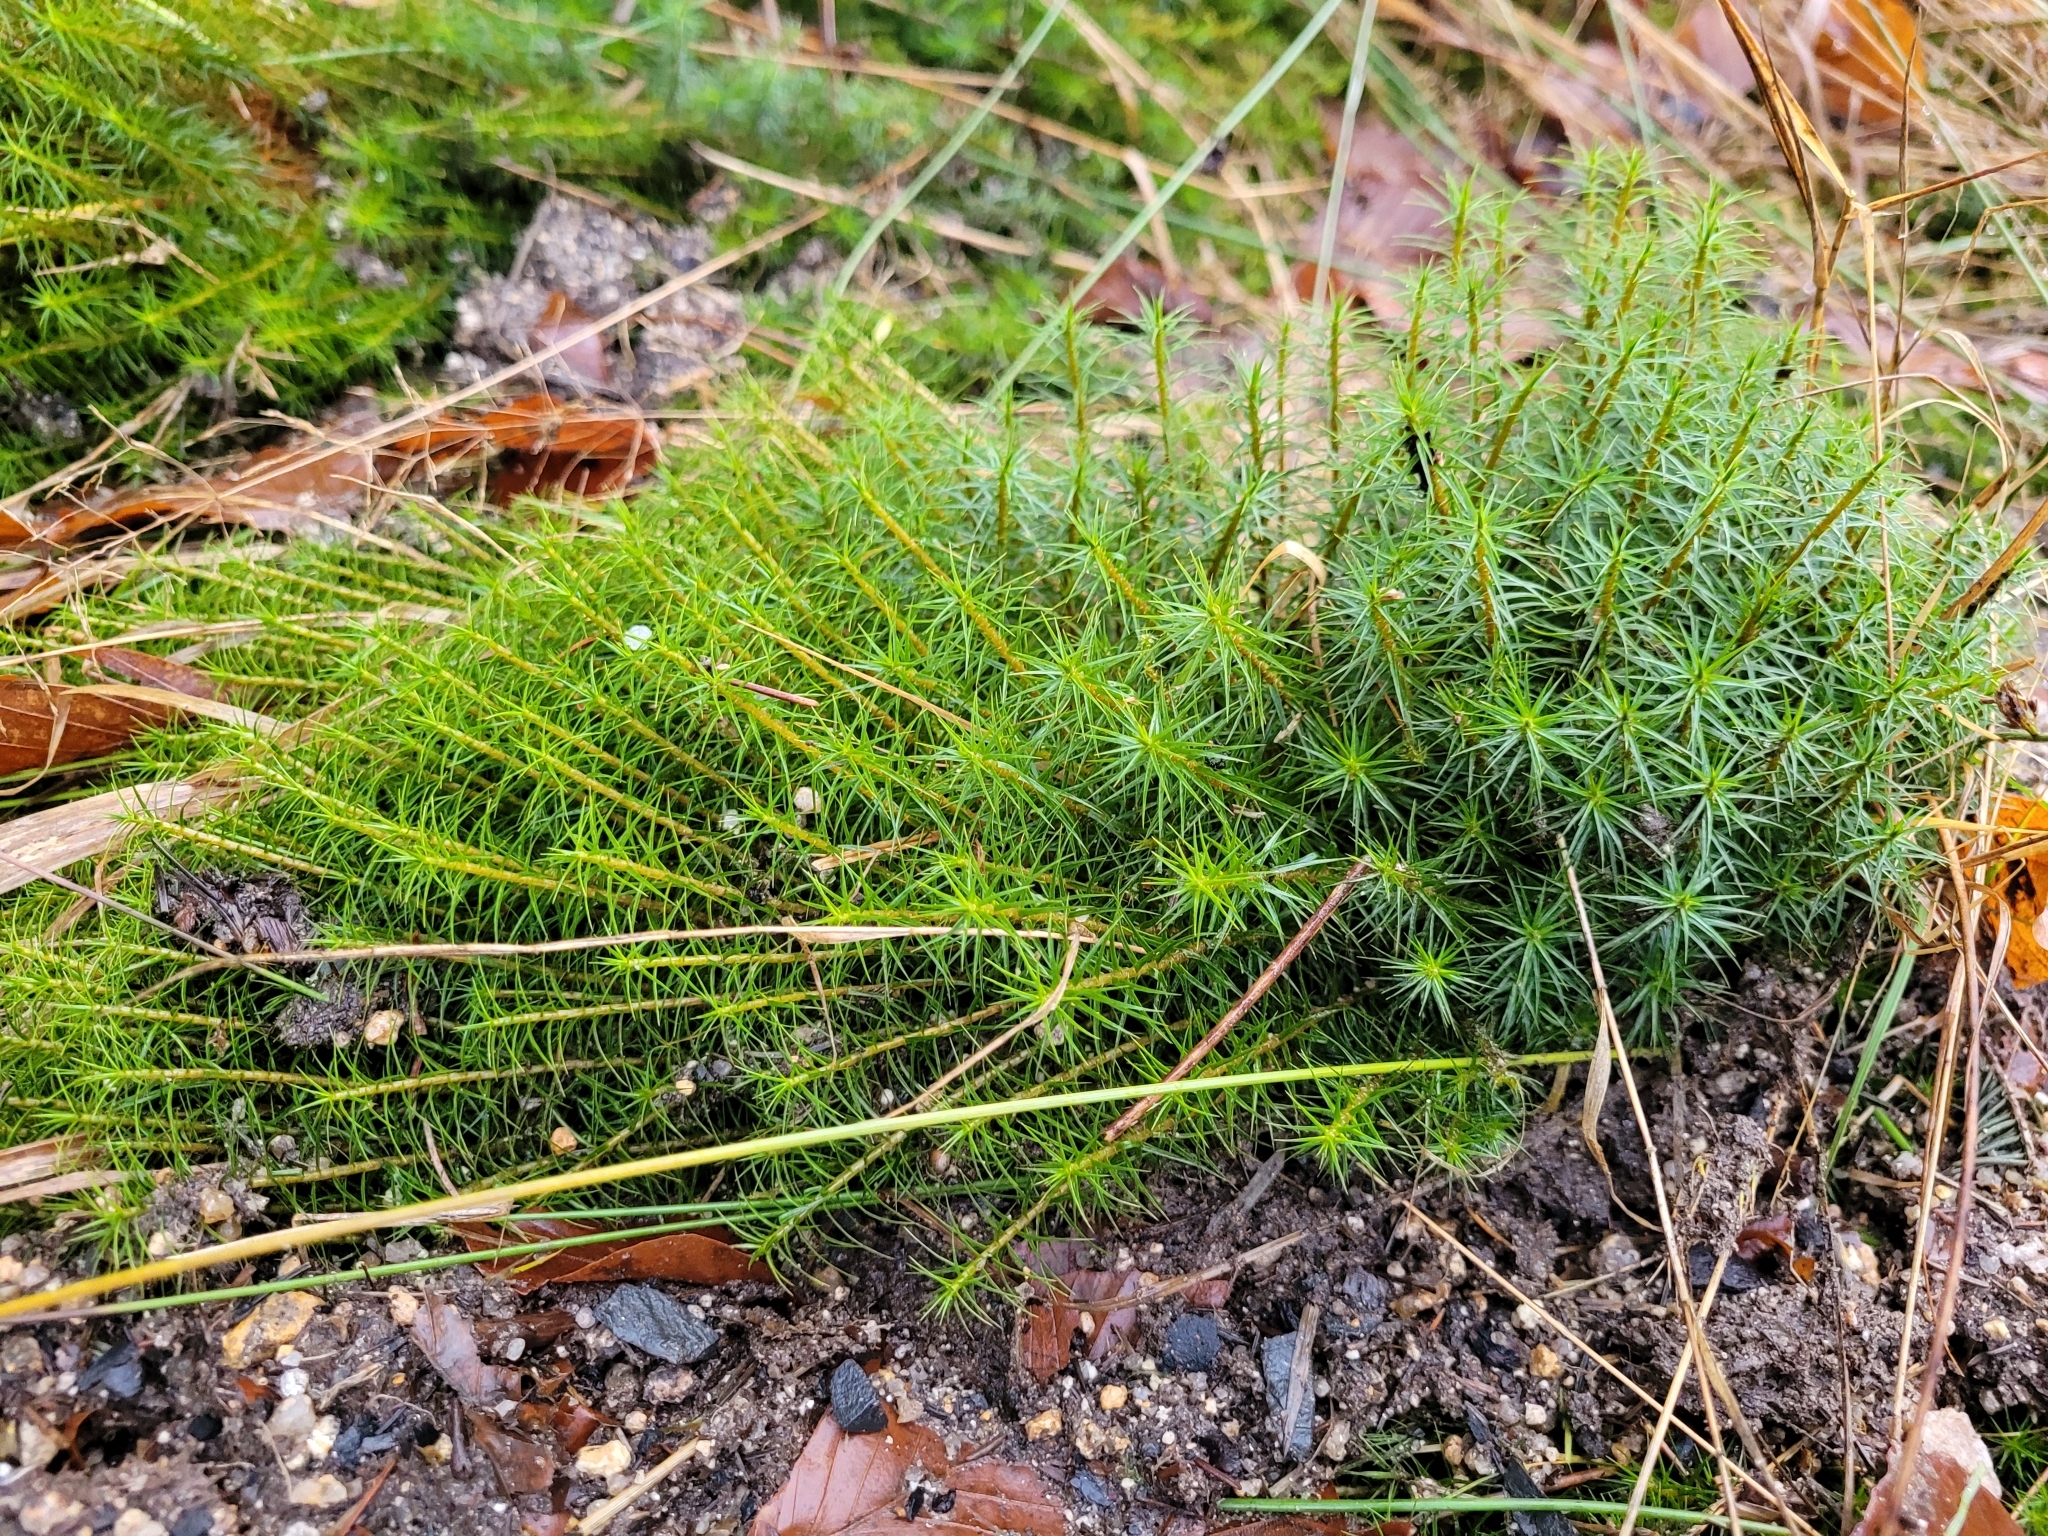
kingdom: Plantae
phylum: Bryophyta
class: Polytrichopsida
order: Polytrichales
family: Polytrichaceae
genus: Polytrichum
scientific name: Polytrichum commune
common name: Common haircap
